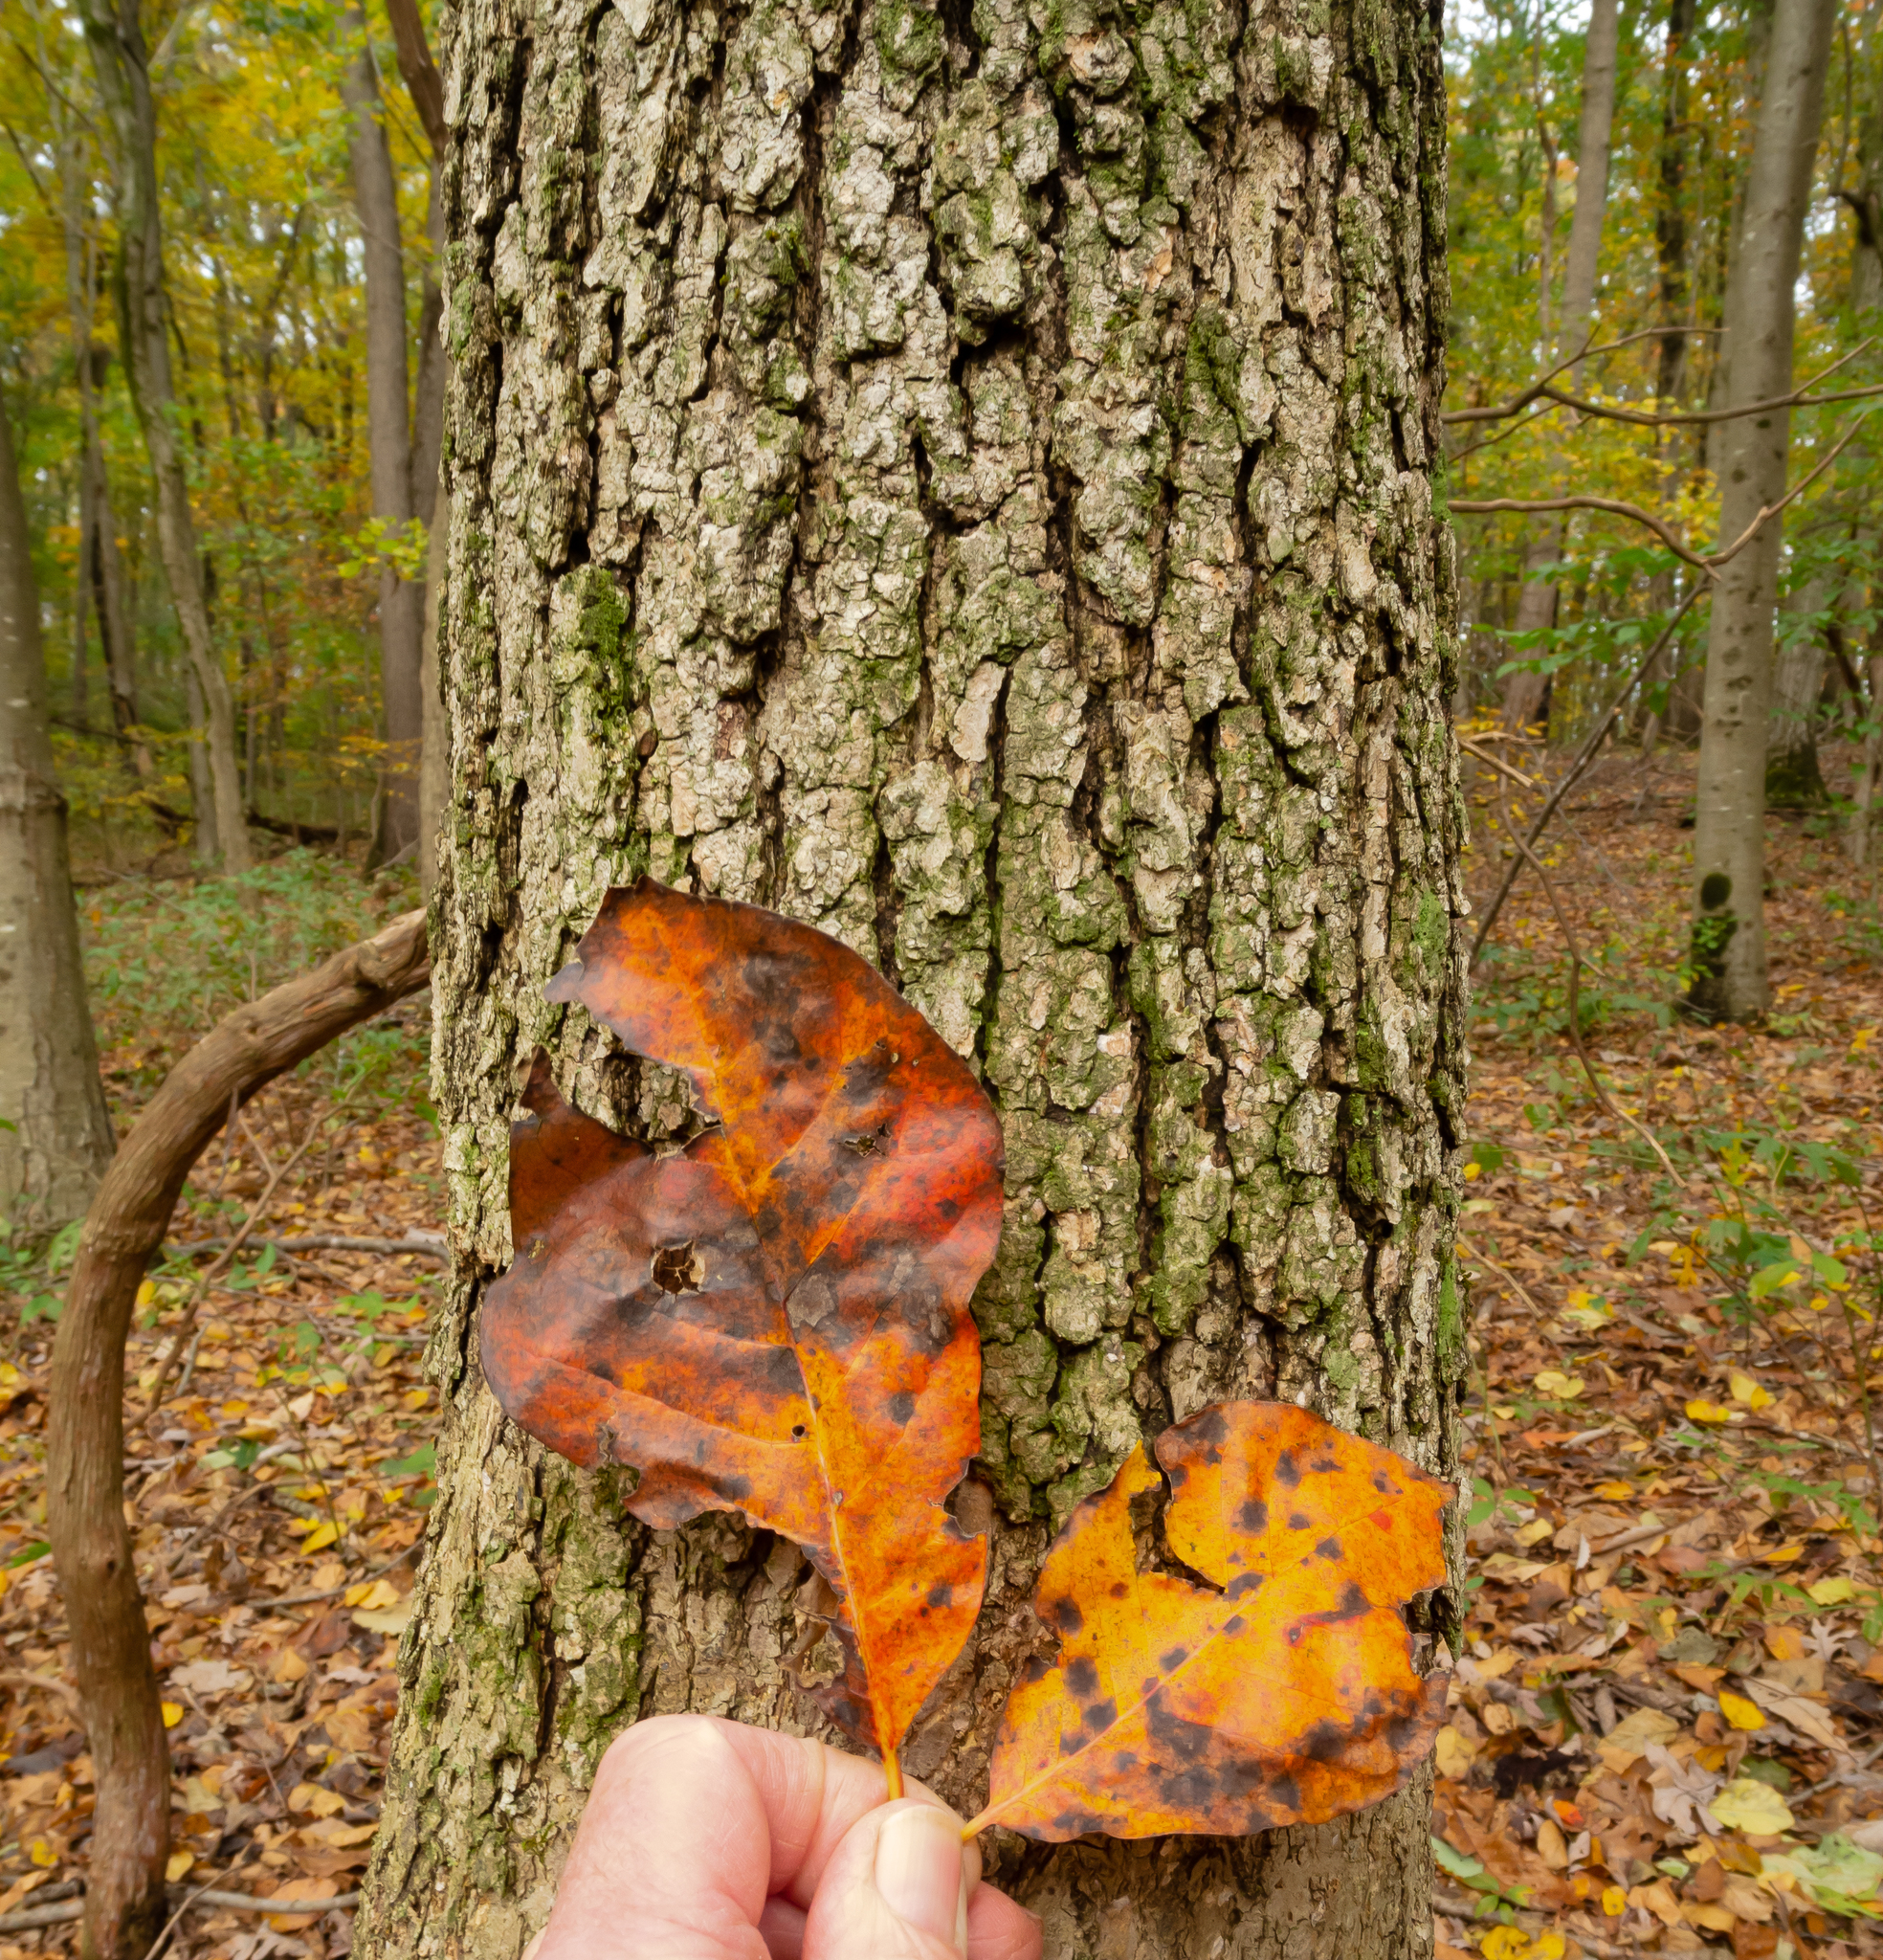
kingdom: Plantae
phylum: Tracheophyta
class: Magnoliopsida
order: Cornales
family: Nyssaceae
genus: Nyssa
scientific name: Nyssa sylvatica
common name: Black tupelo
